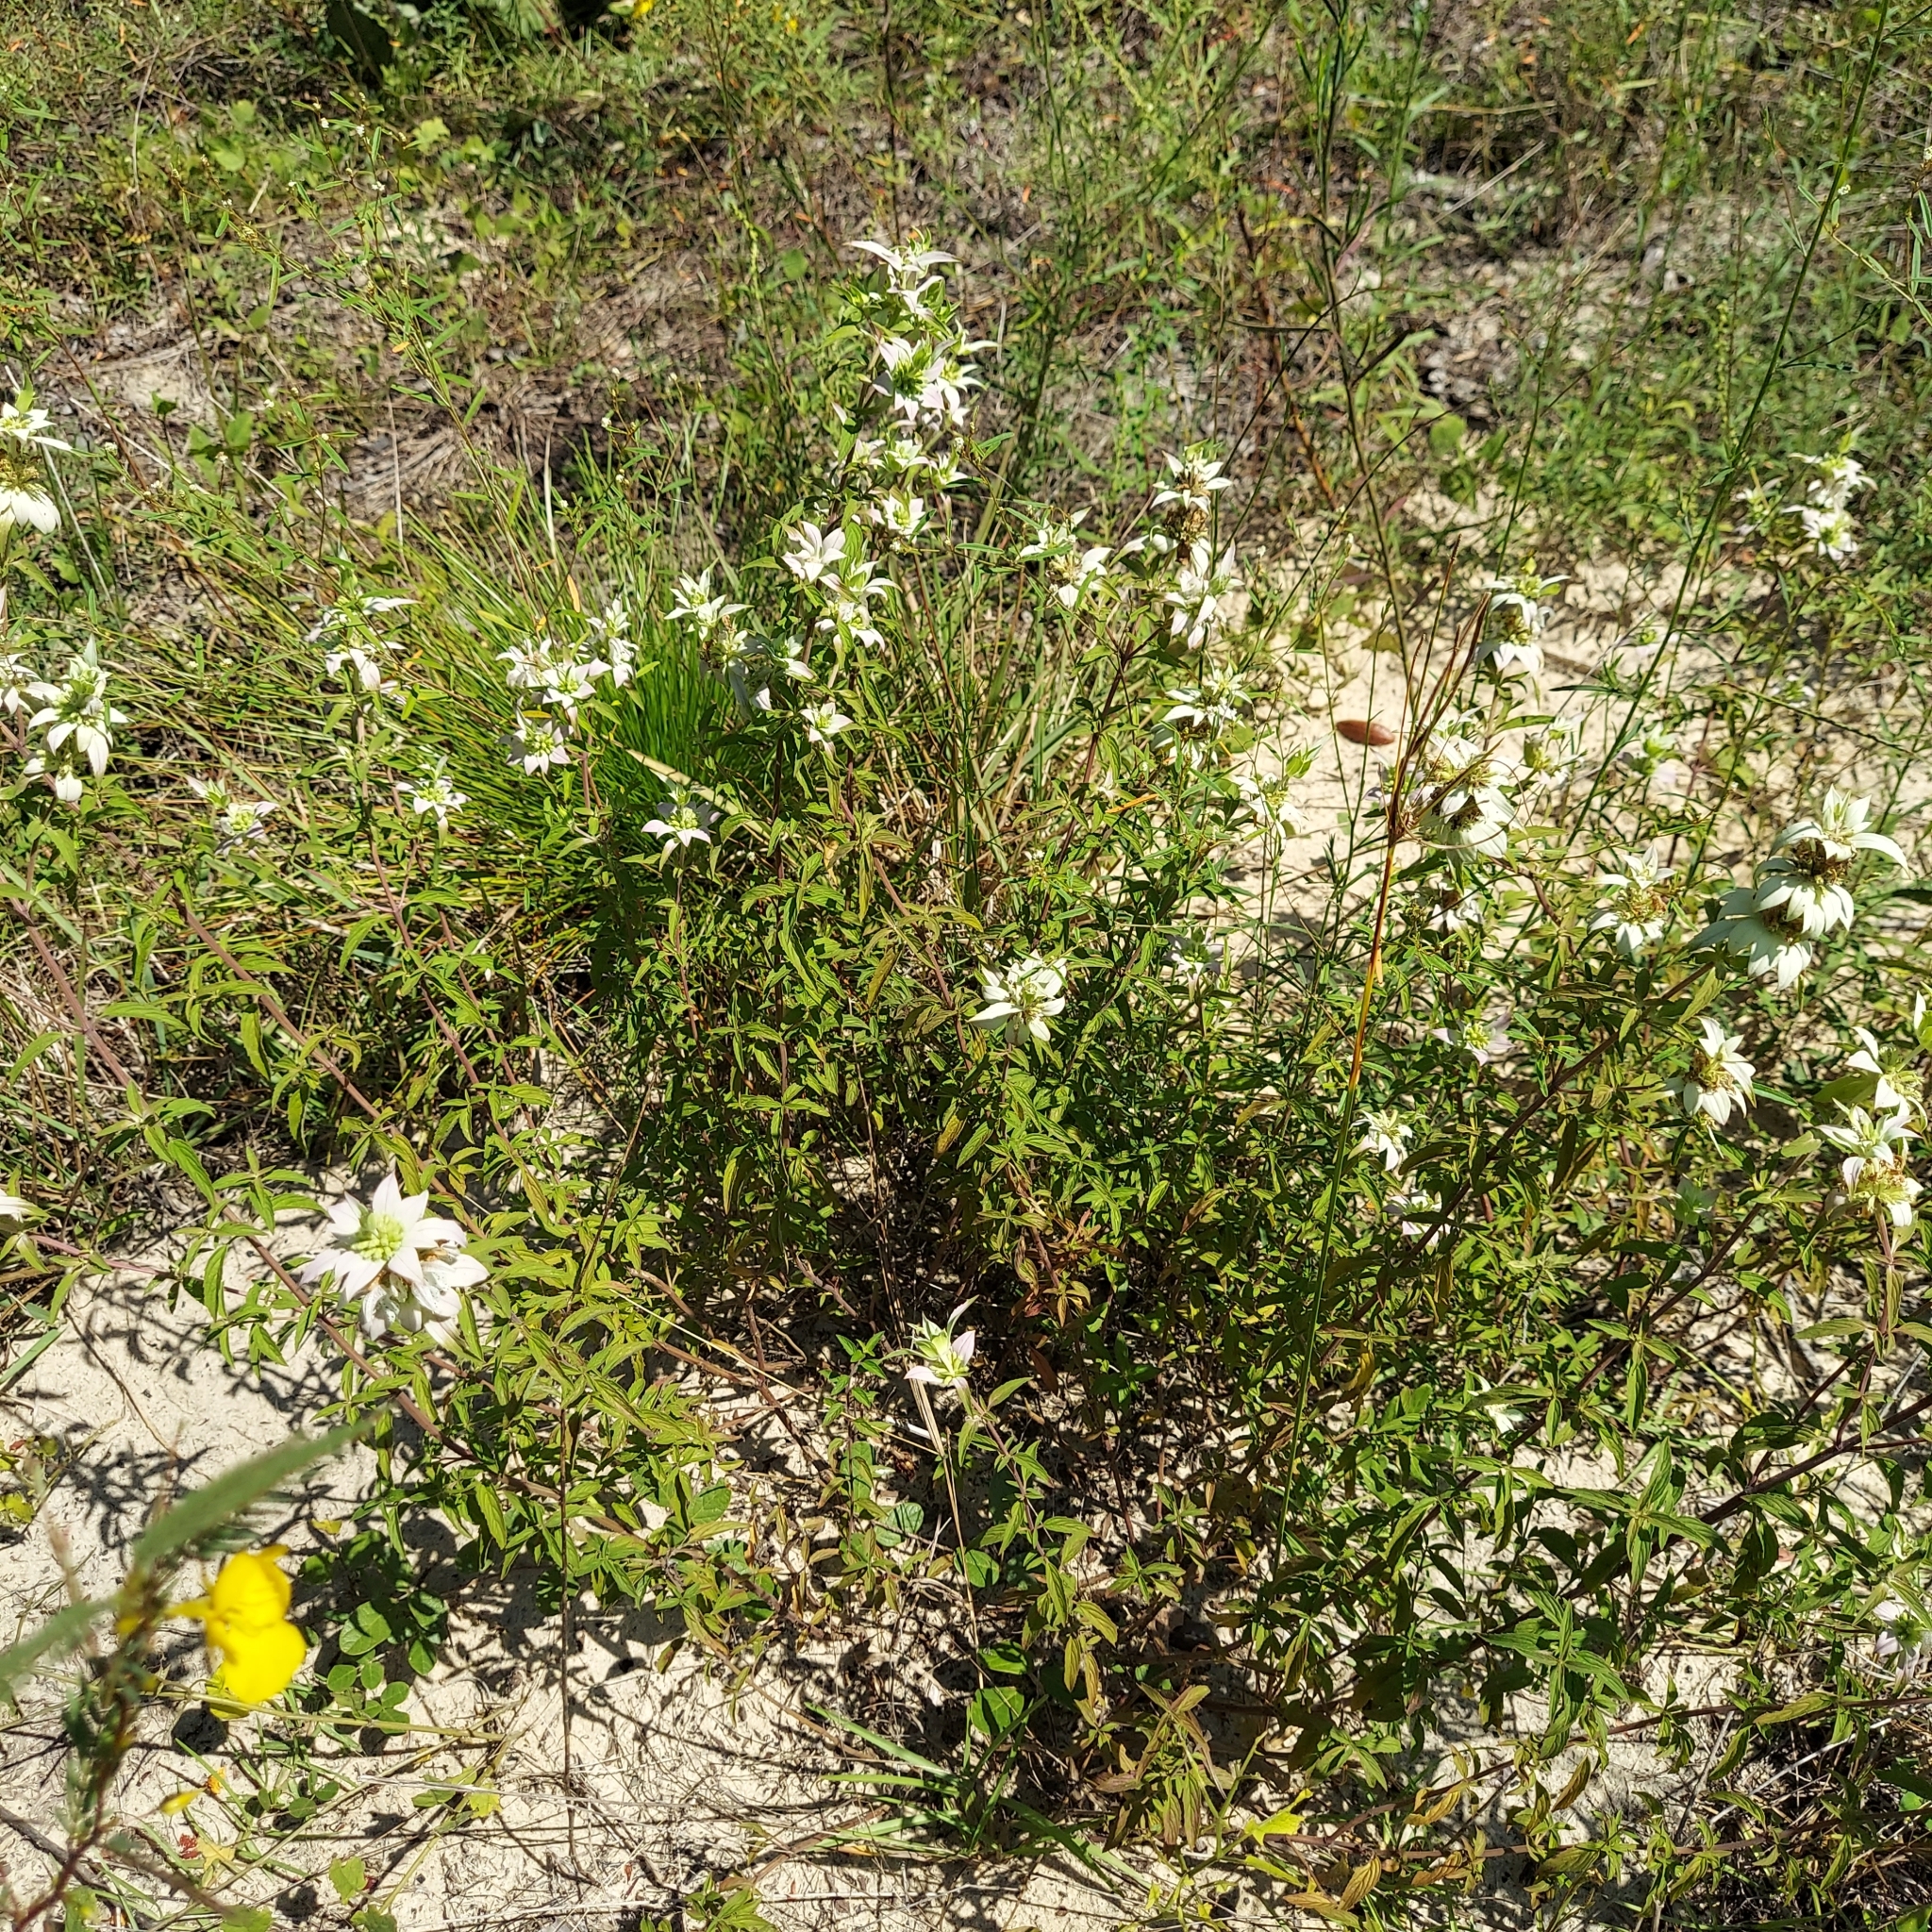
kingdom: Plantae
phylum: Tracheophyta
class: Magnoliopsida
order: Lamiales
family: Lamiaceae
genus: Monarda
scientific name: Monarda punctata
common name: Dotted monarda
